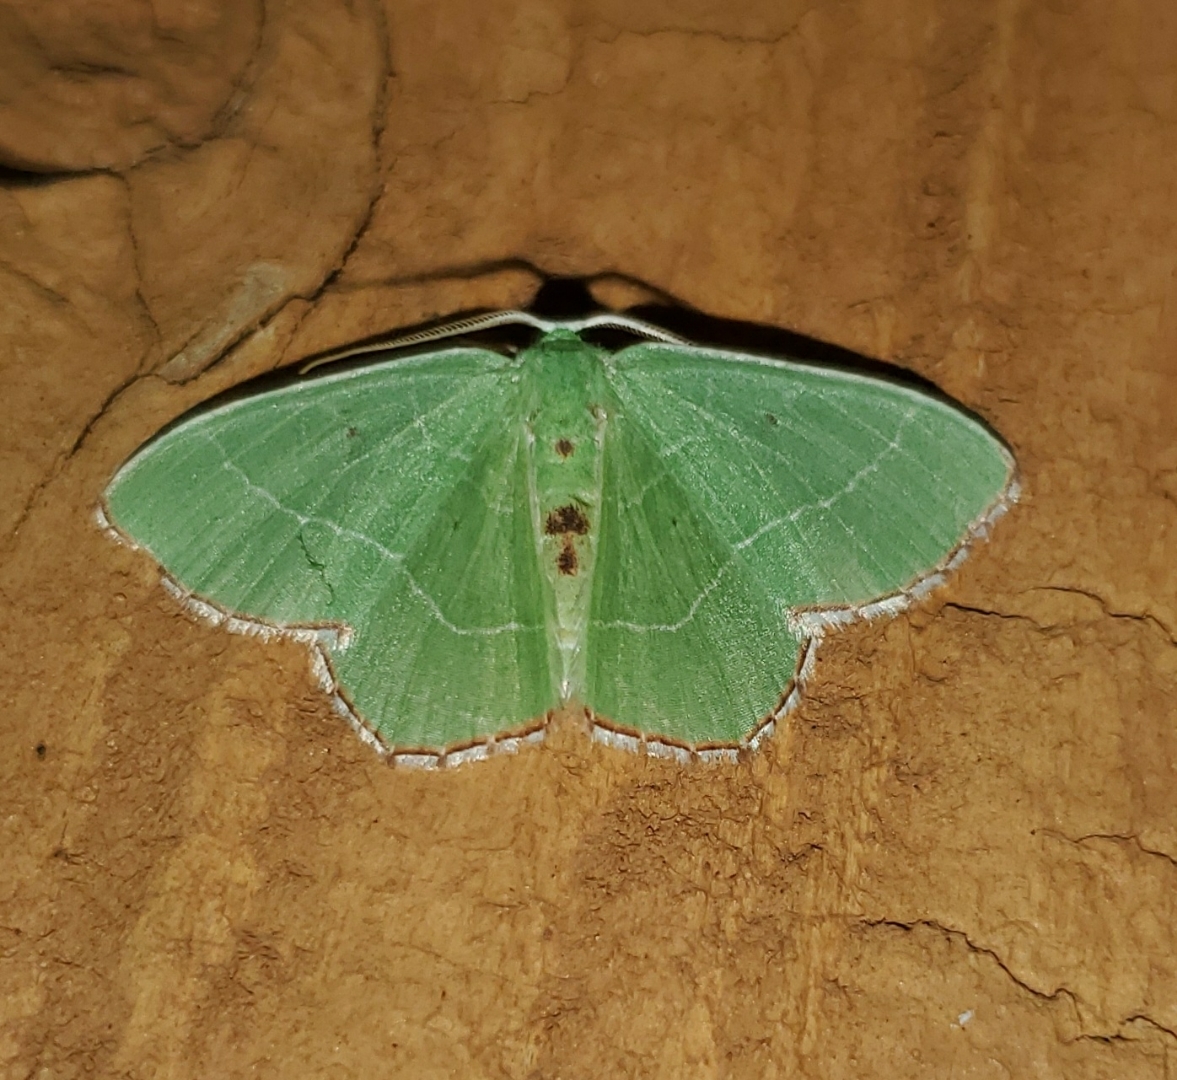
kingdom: Animalia
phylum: Arthropoda
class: Insecta
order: Lepidoptera
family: Geometridae
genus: Nemoria
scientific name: Nemoria saturiba
